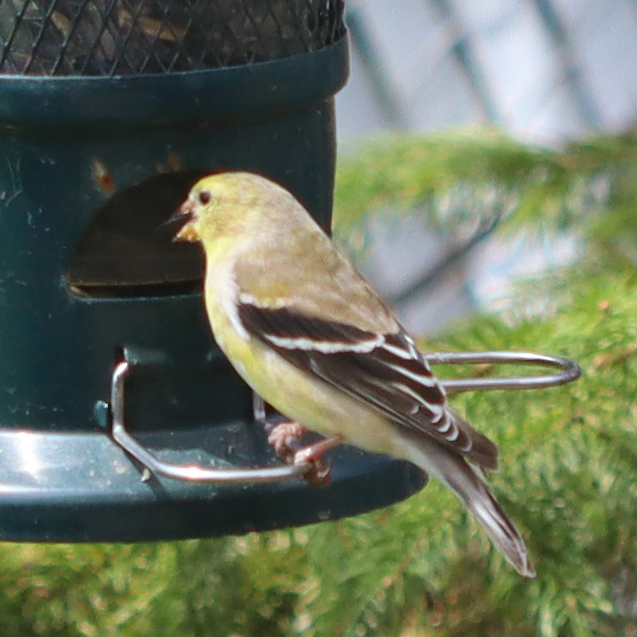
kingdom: Animalia
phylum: Chordata
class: Aves
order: Passeriformes
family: Fringillidae
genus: Spinus
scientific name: Spinus tristis
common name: American goldfinch
